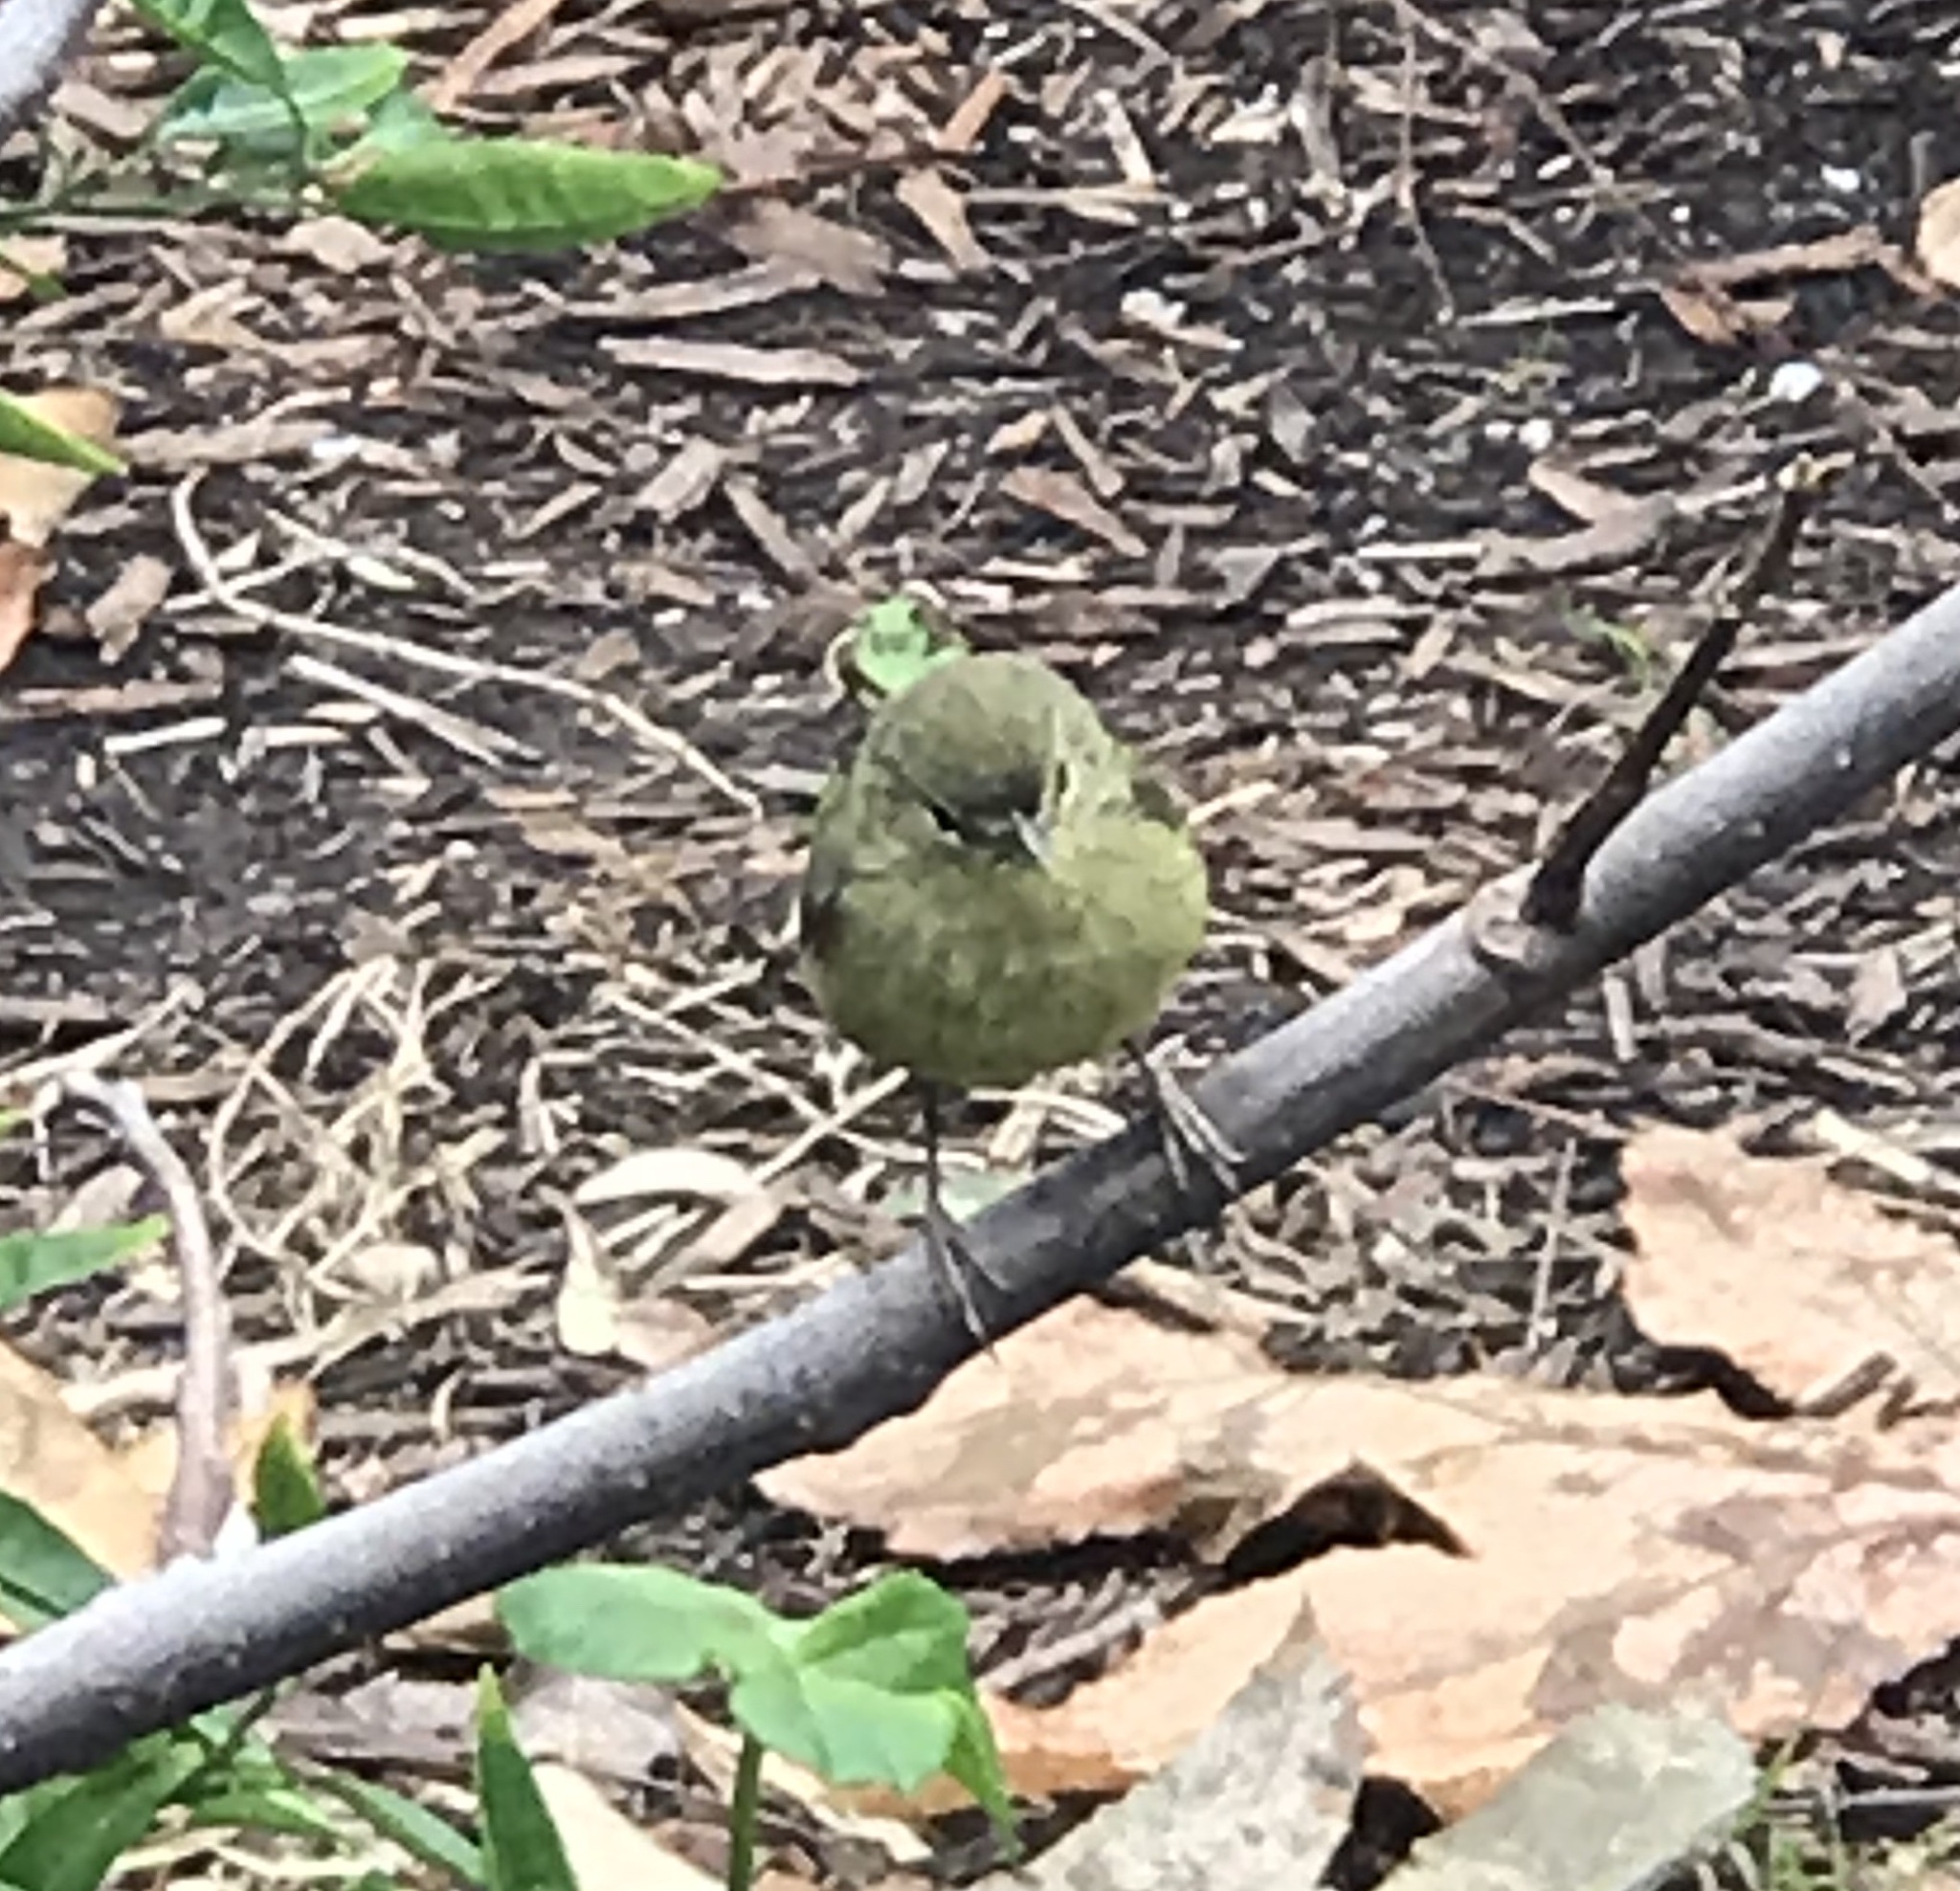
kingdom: Animalia
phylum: Chordata
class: Aves
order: Passeriformes
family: Parulidae
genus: Leiothlypis
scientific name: Leiothlypis celata
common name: Orange-crowned warbler
